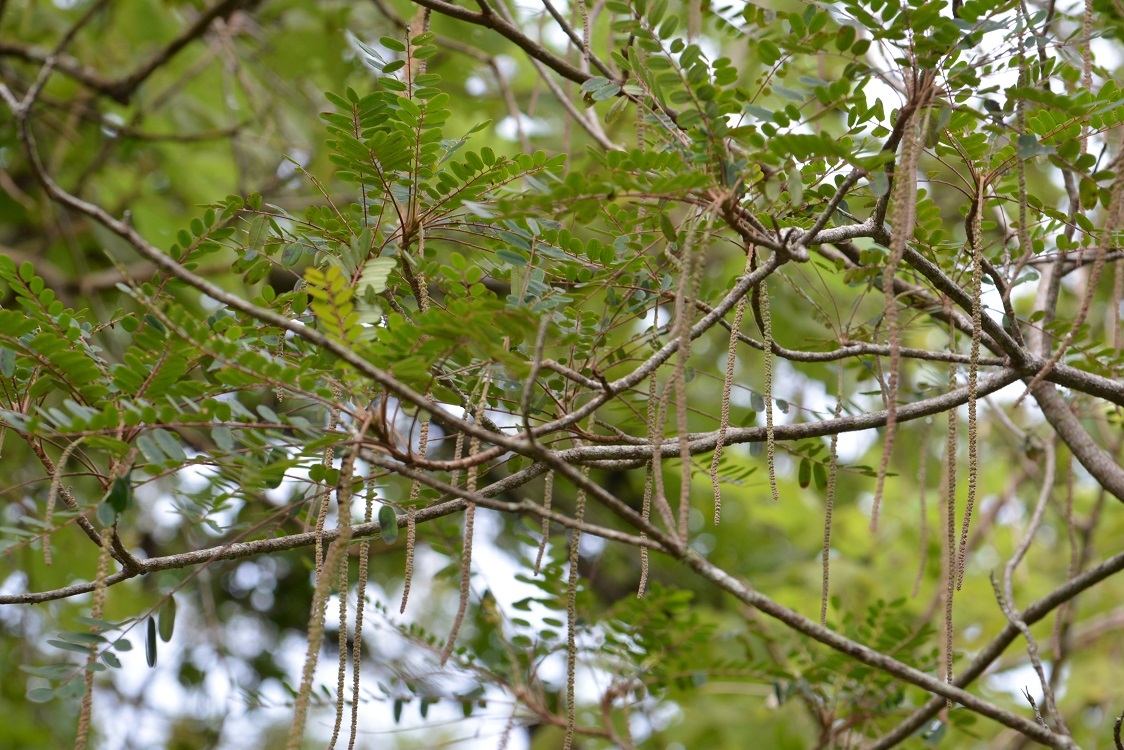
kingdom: Plantae
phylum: Tracheophyta
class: Magnoliopsida
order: Picramniales
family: Picramniaceae
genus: Alvaradoa
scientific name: Alvaradoa amorphoides
